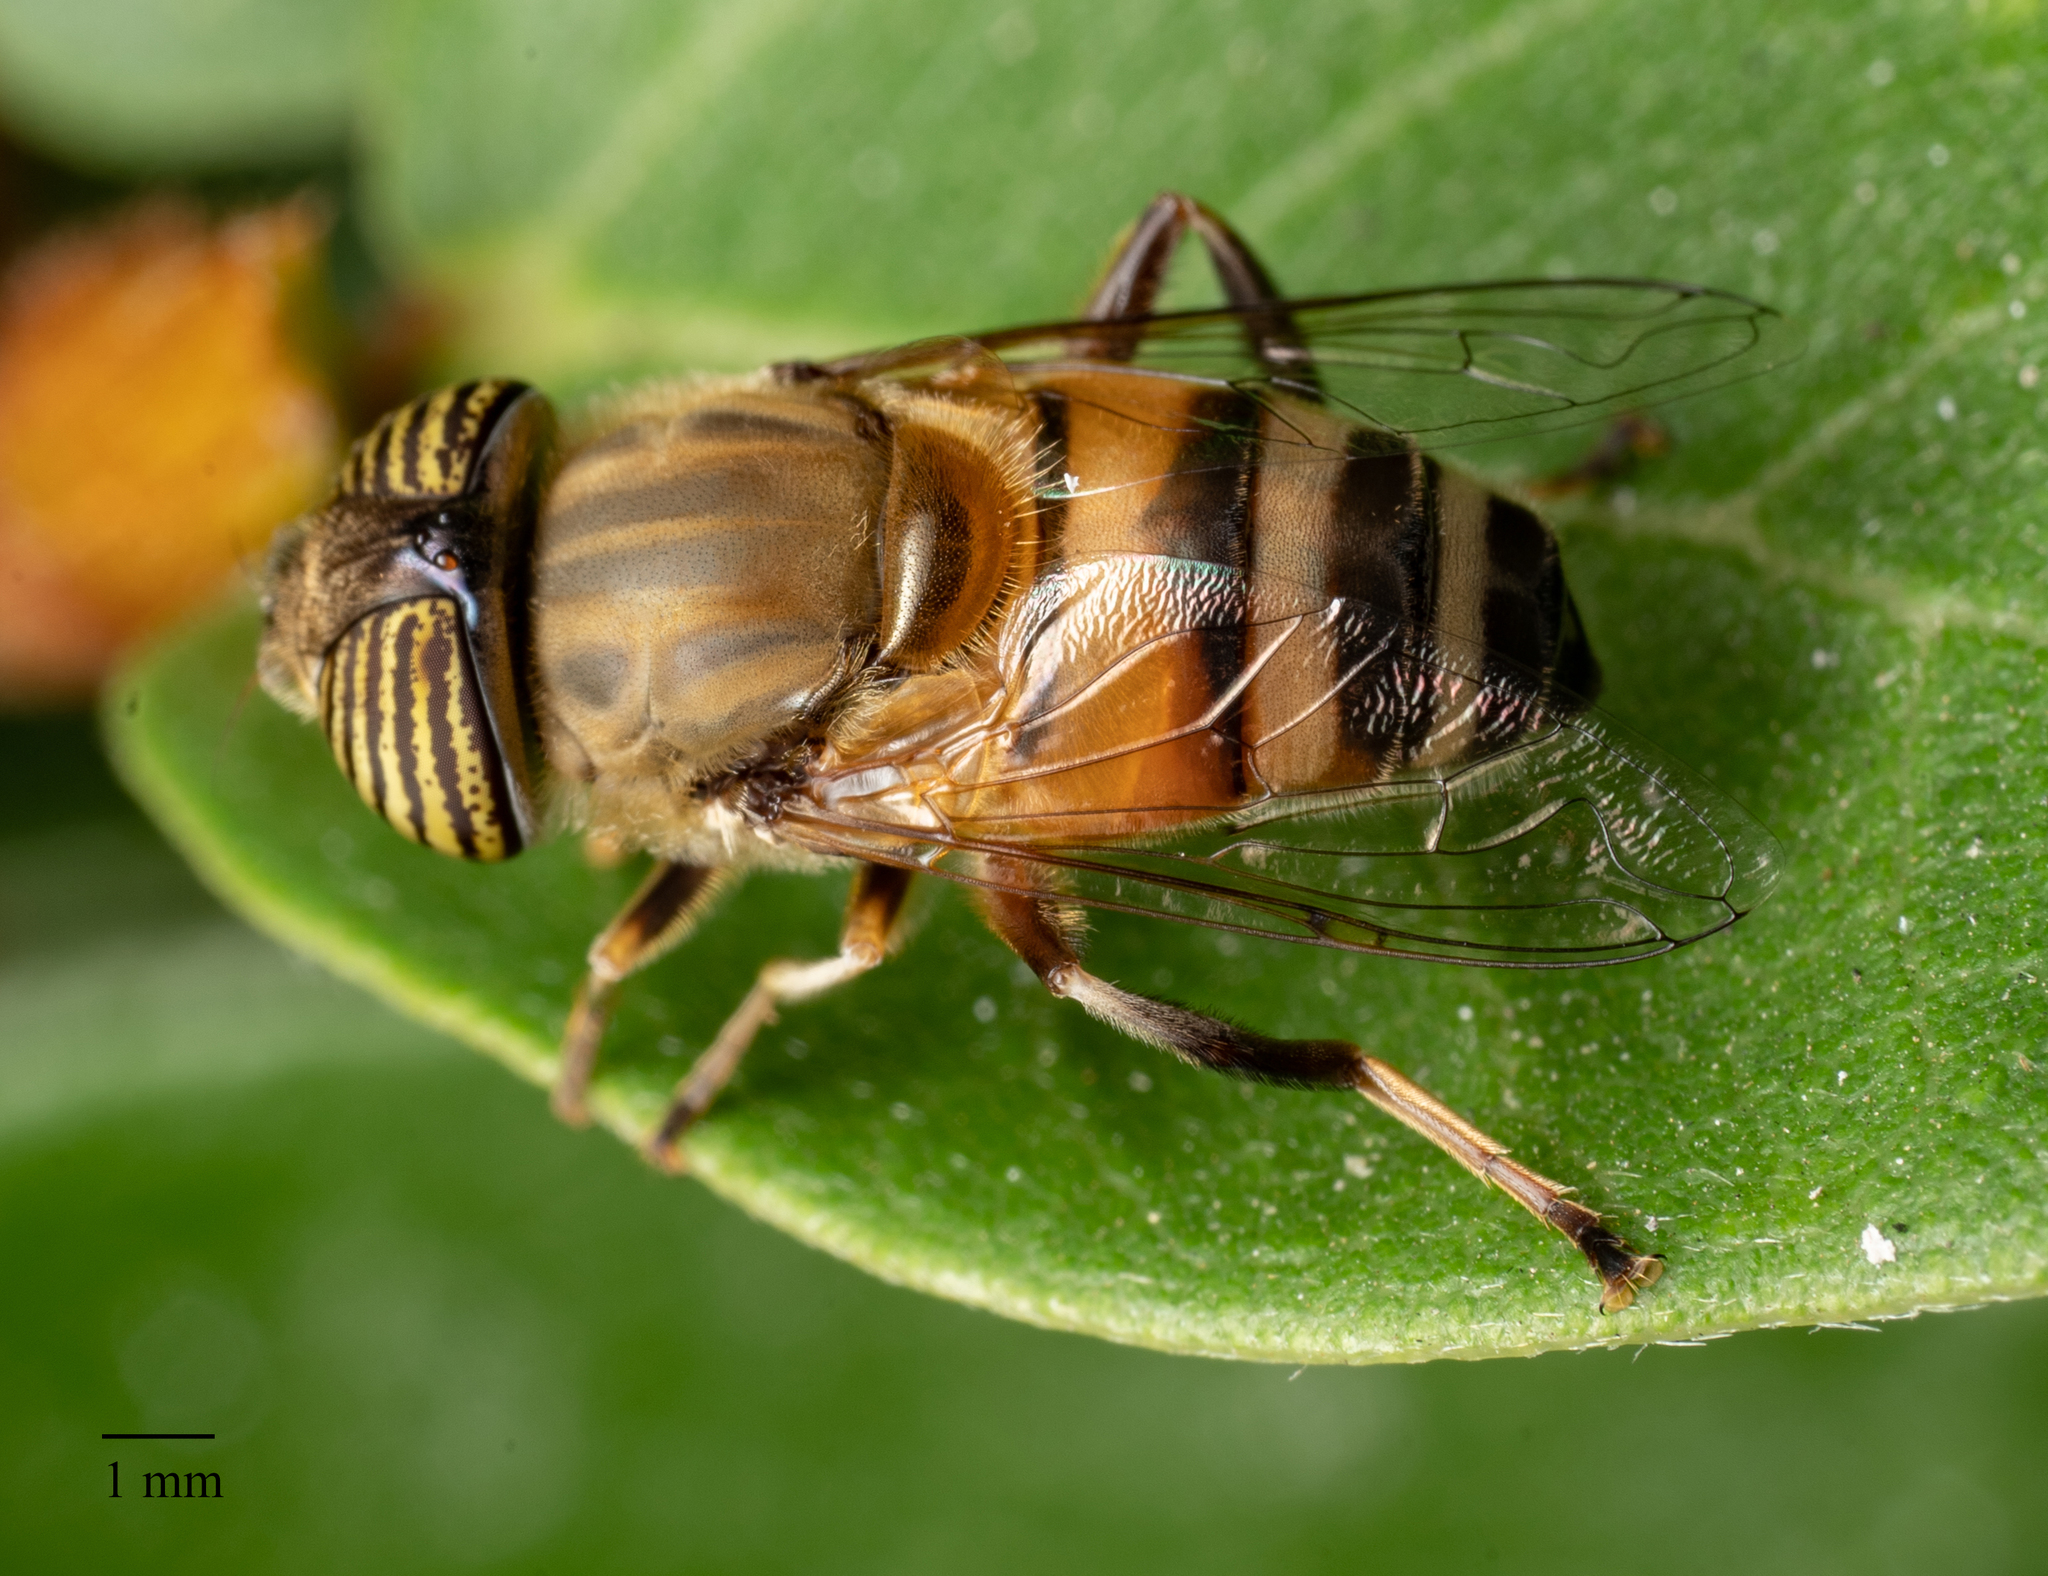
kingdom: Animalia
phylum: Arthropoda
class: Insecta
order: Diptera
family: Syrphidae
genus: Eristalinus
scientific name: Eristalinus taeniops
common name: Syrphid fly
